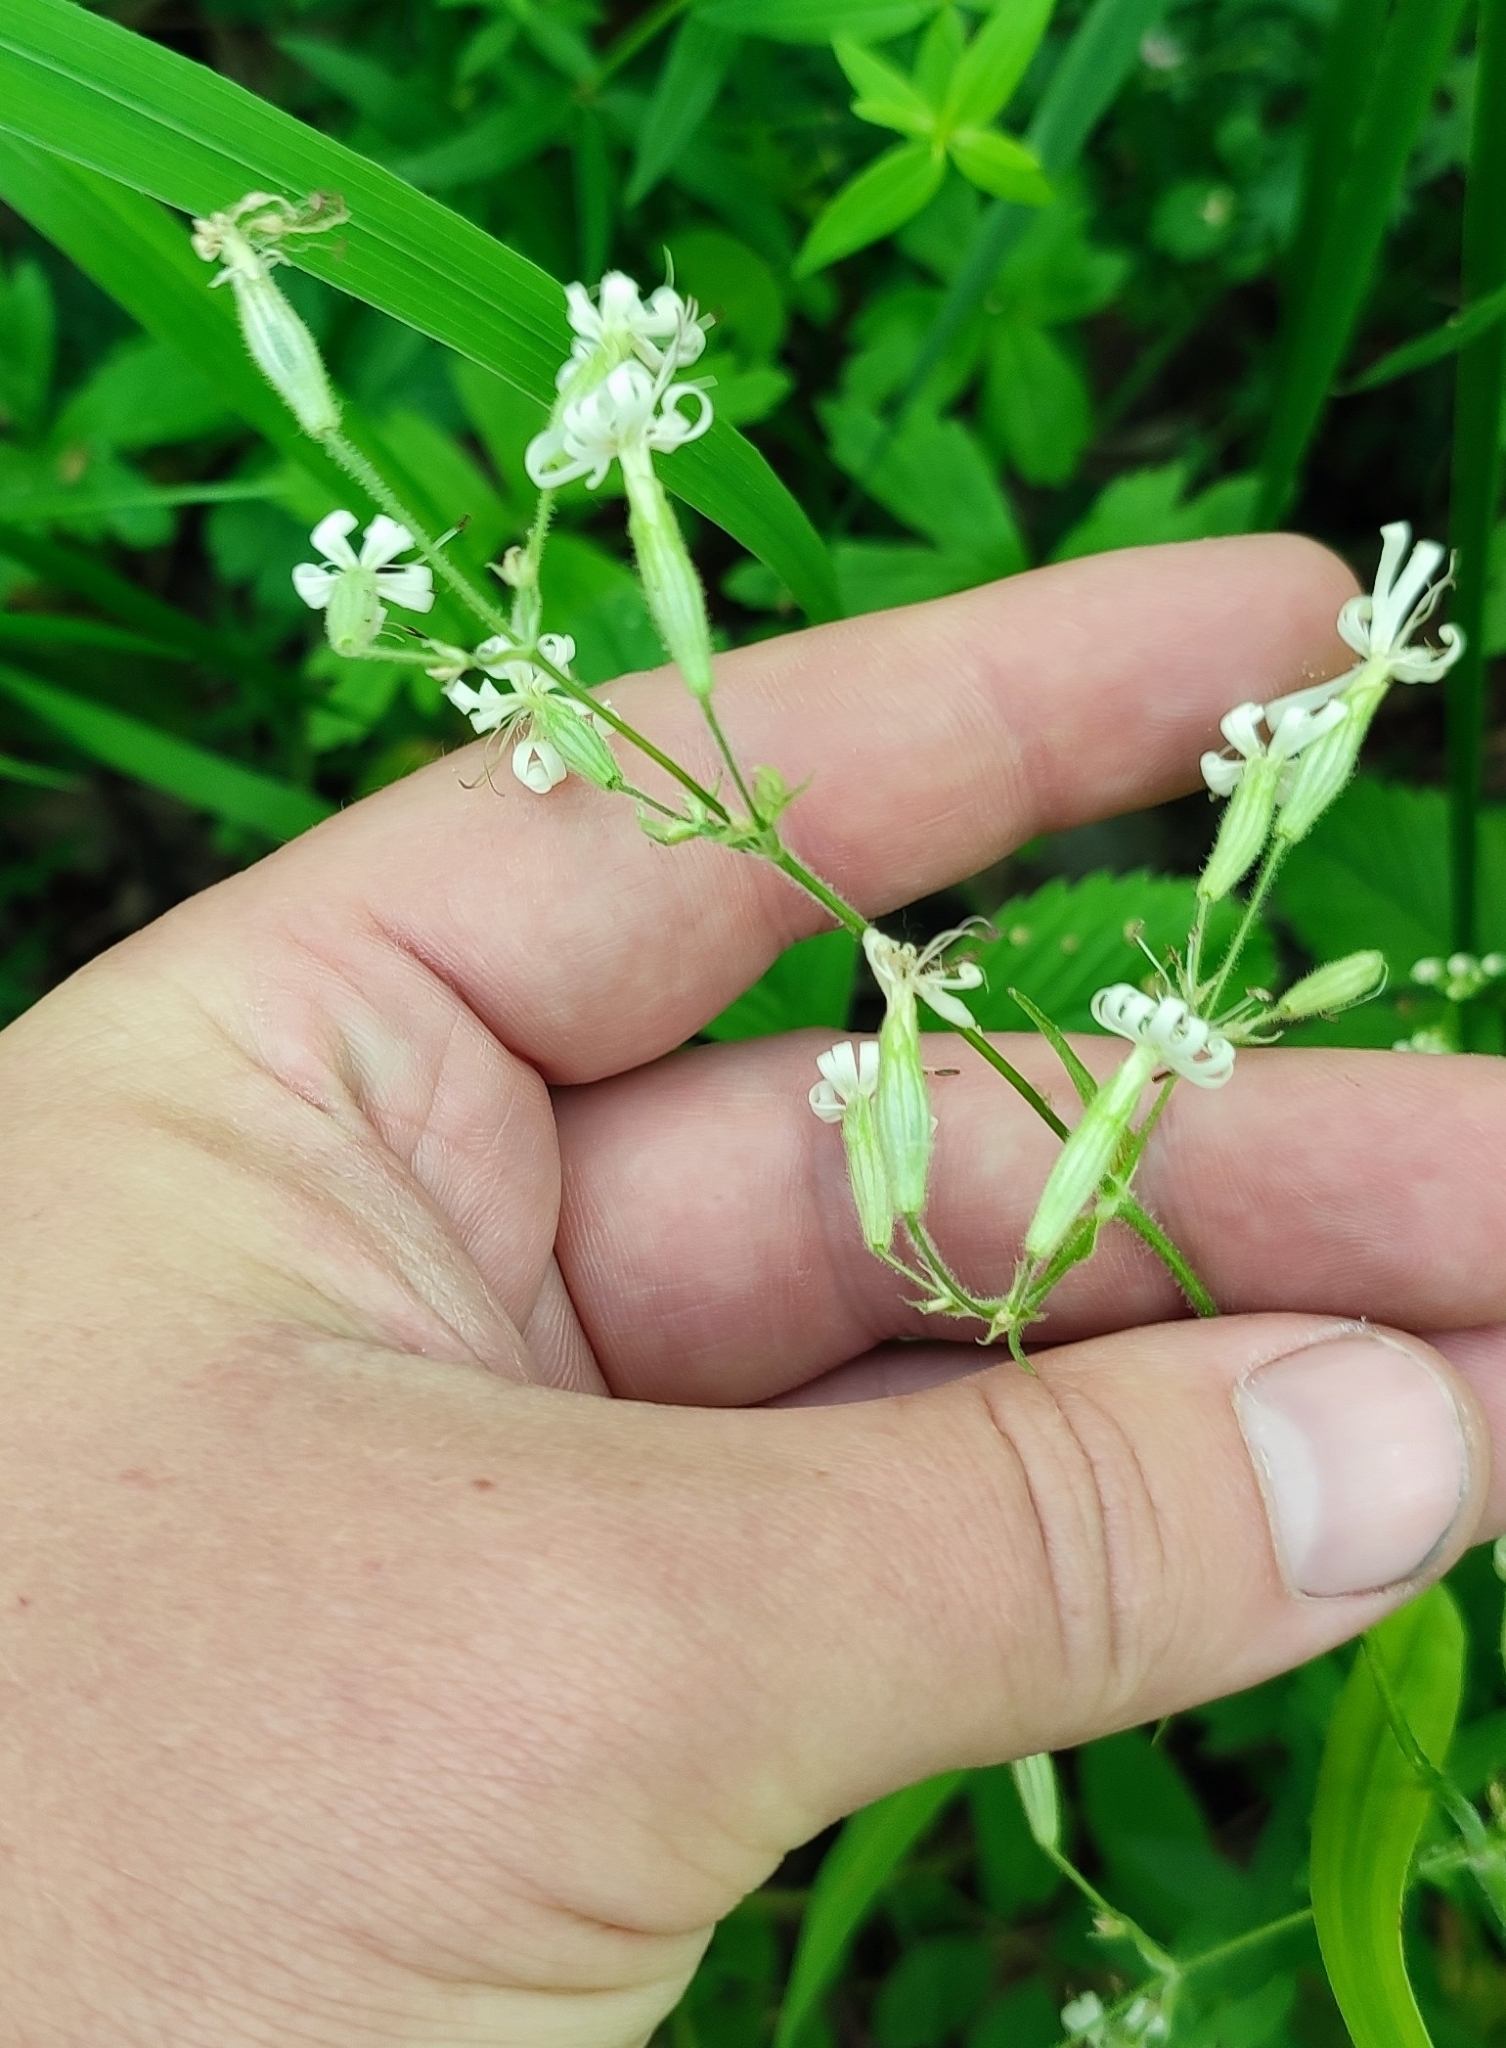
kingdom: Plantae
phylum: Tracheophyta
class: Magnoliopsida
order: Caryophyllales
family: Caryophyllaceae
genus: Silene
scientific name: Silene nutans
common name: Nottingham catchfly
